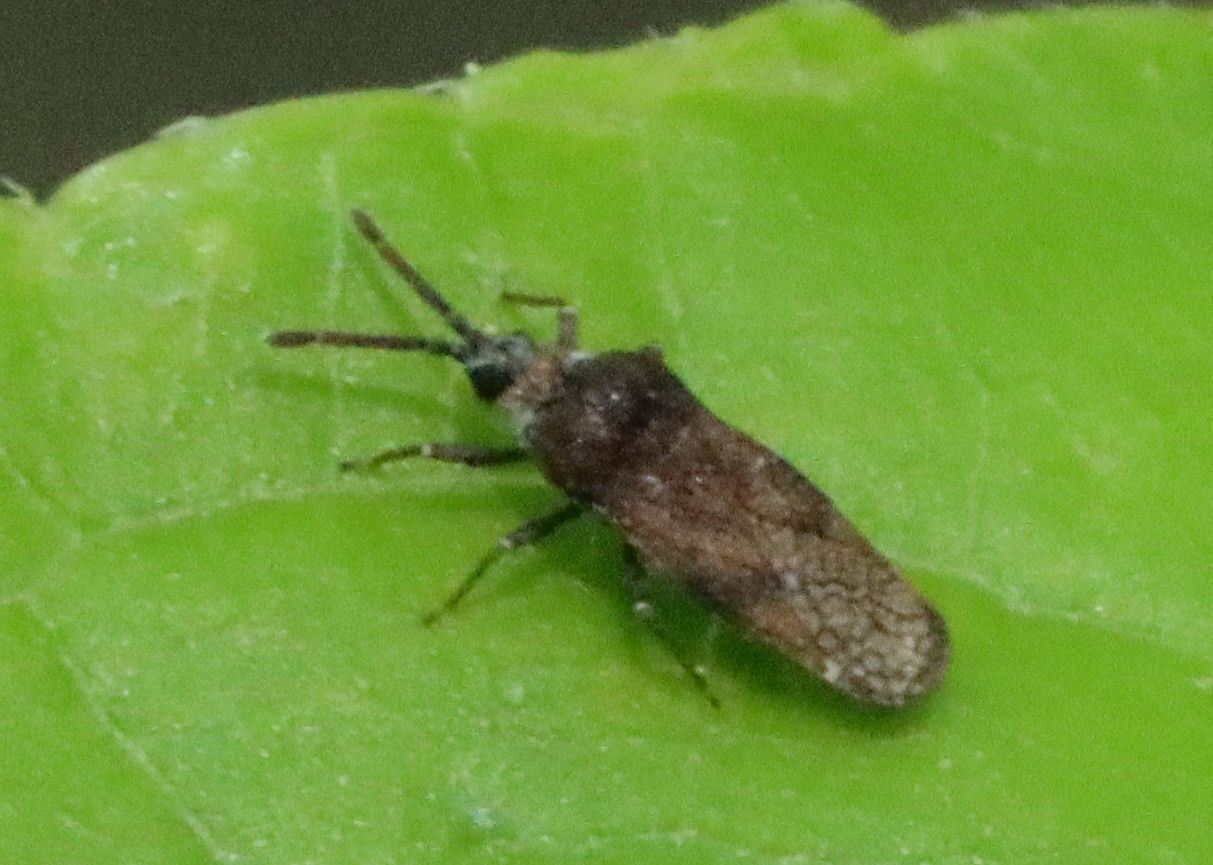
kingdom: Animalia
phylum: Arthropoda
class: Insecta
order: Hemiptera
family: Tingidae
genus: Leptoypha
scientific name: Leptoypha mutica
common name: Fringetree lace bug
